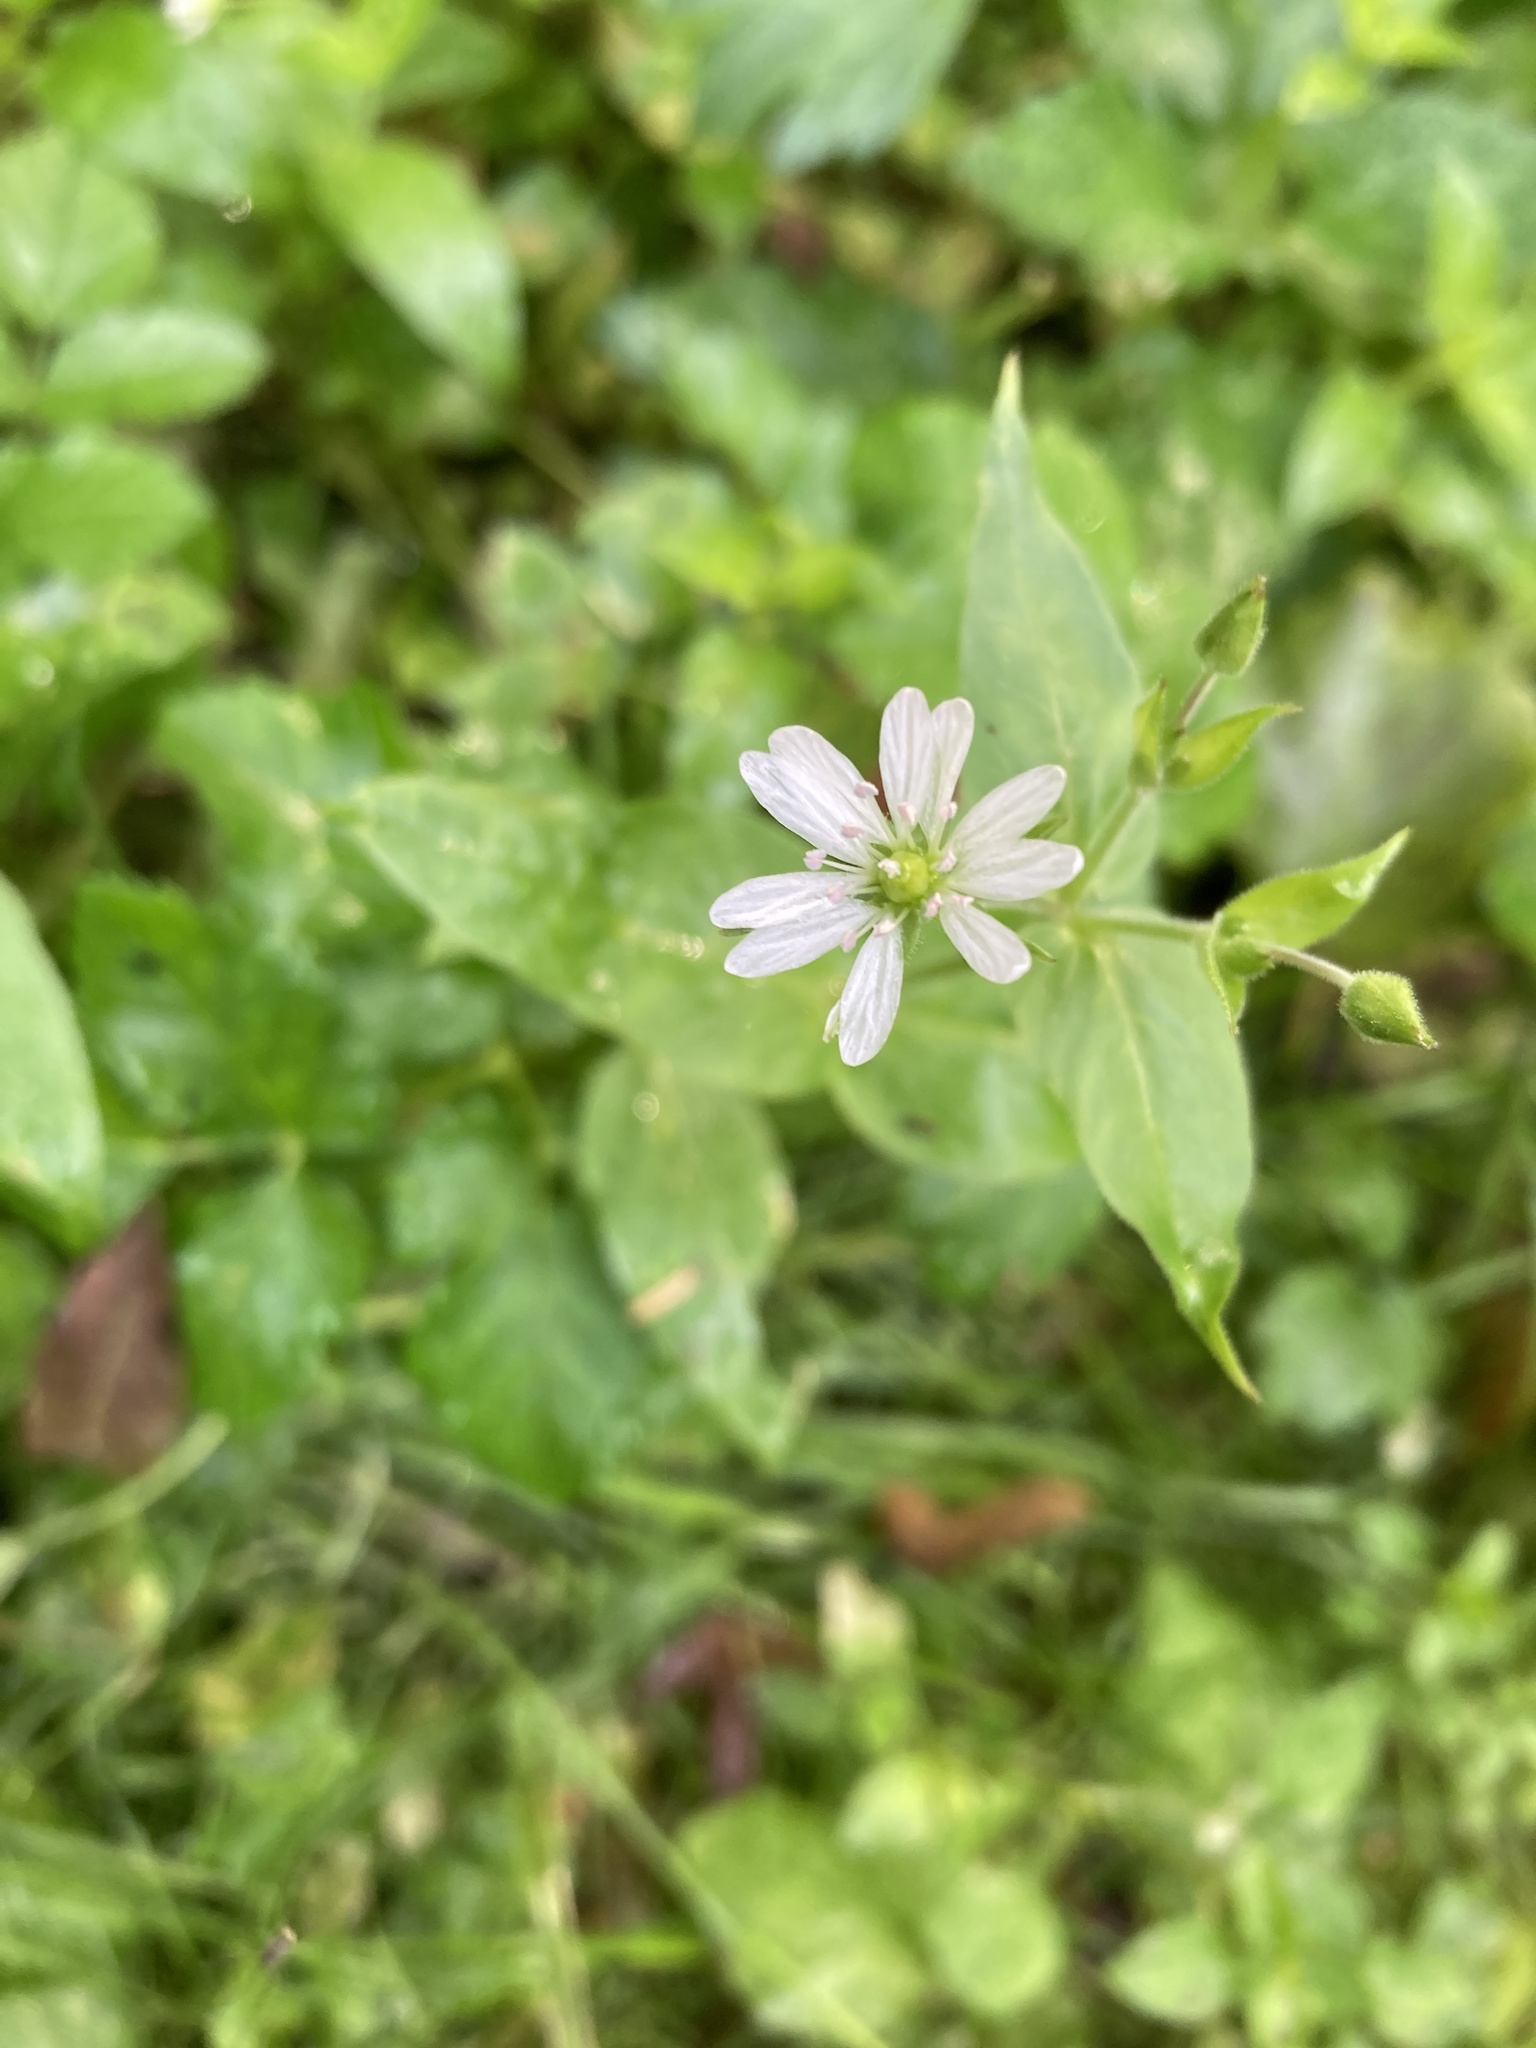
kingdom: Plantae
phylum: Tracheophyta
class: Magnoliopsida
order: Caryophyllales
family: Caryophyllaceae
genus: Stellaria
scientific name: Stellaria aquatica
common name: Water chickweed
